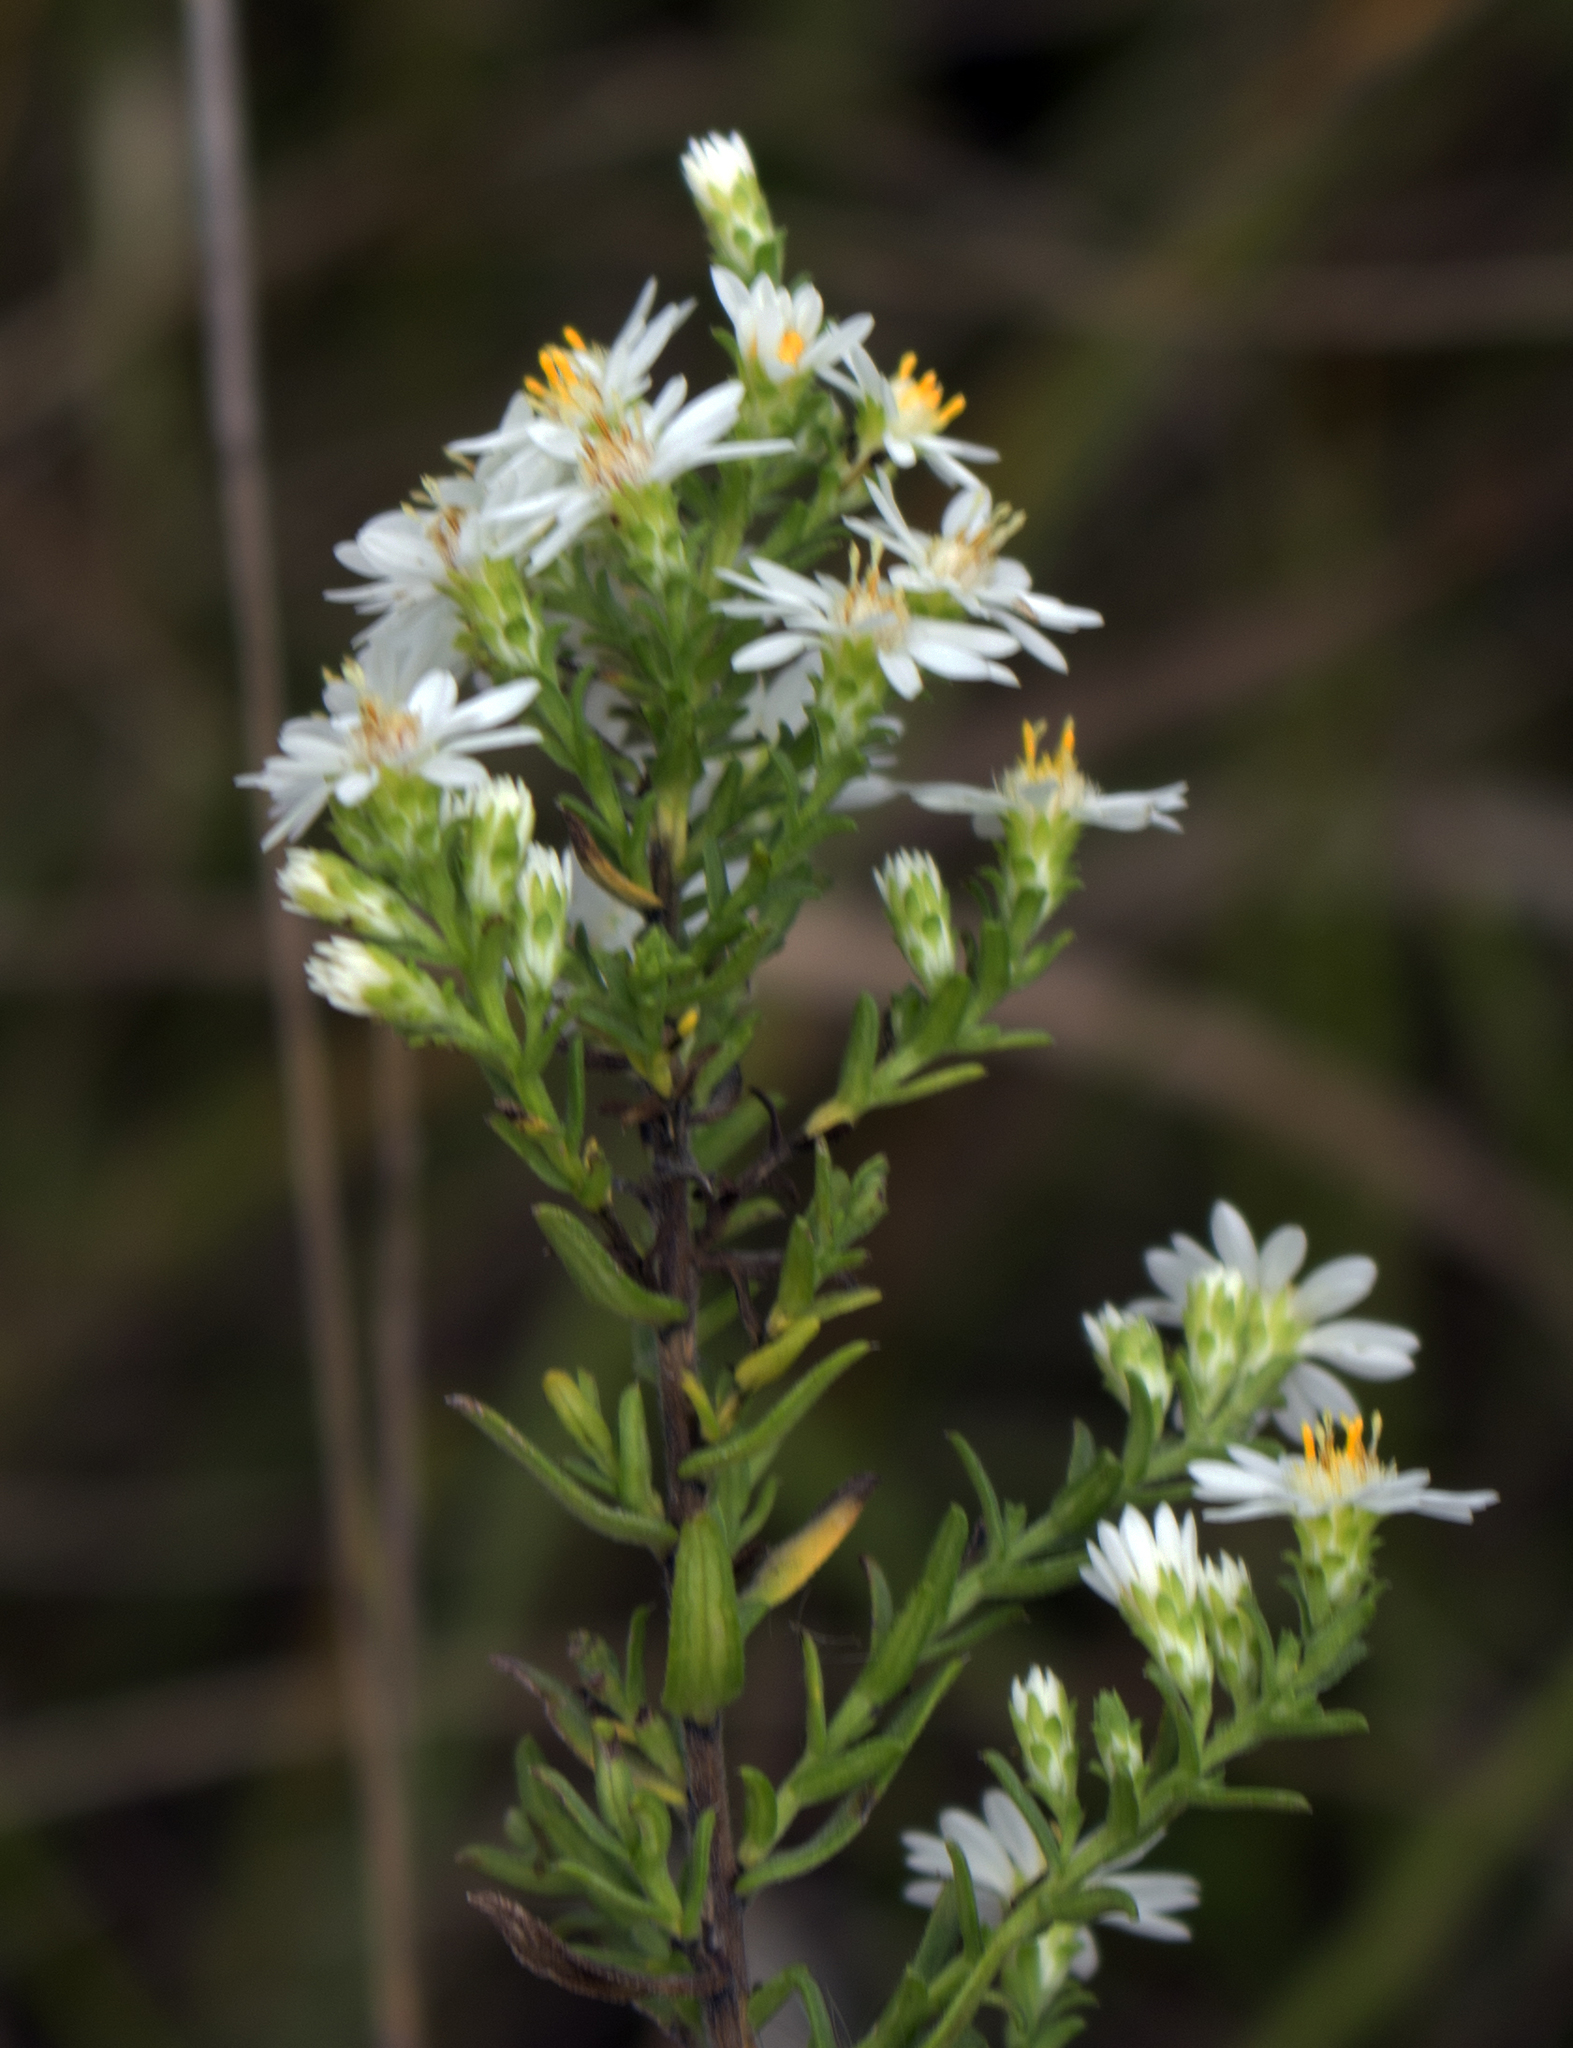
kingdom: Plantae
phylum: Tracheophyta
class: Magnoliopsida
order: Asterales
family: Asteraceae
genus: Symphyotrichum
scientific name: Symphyotrichum ericoides
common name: Heath aster
